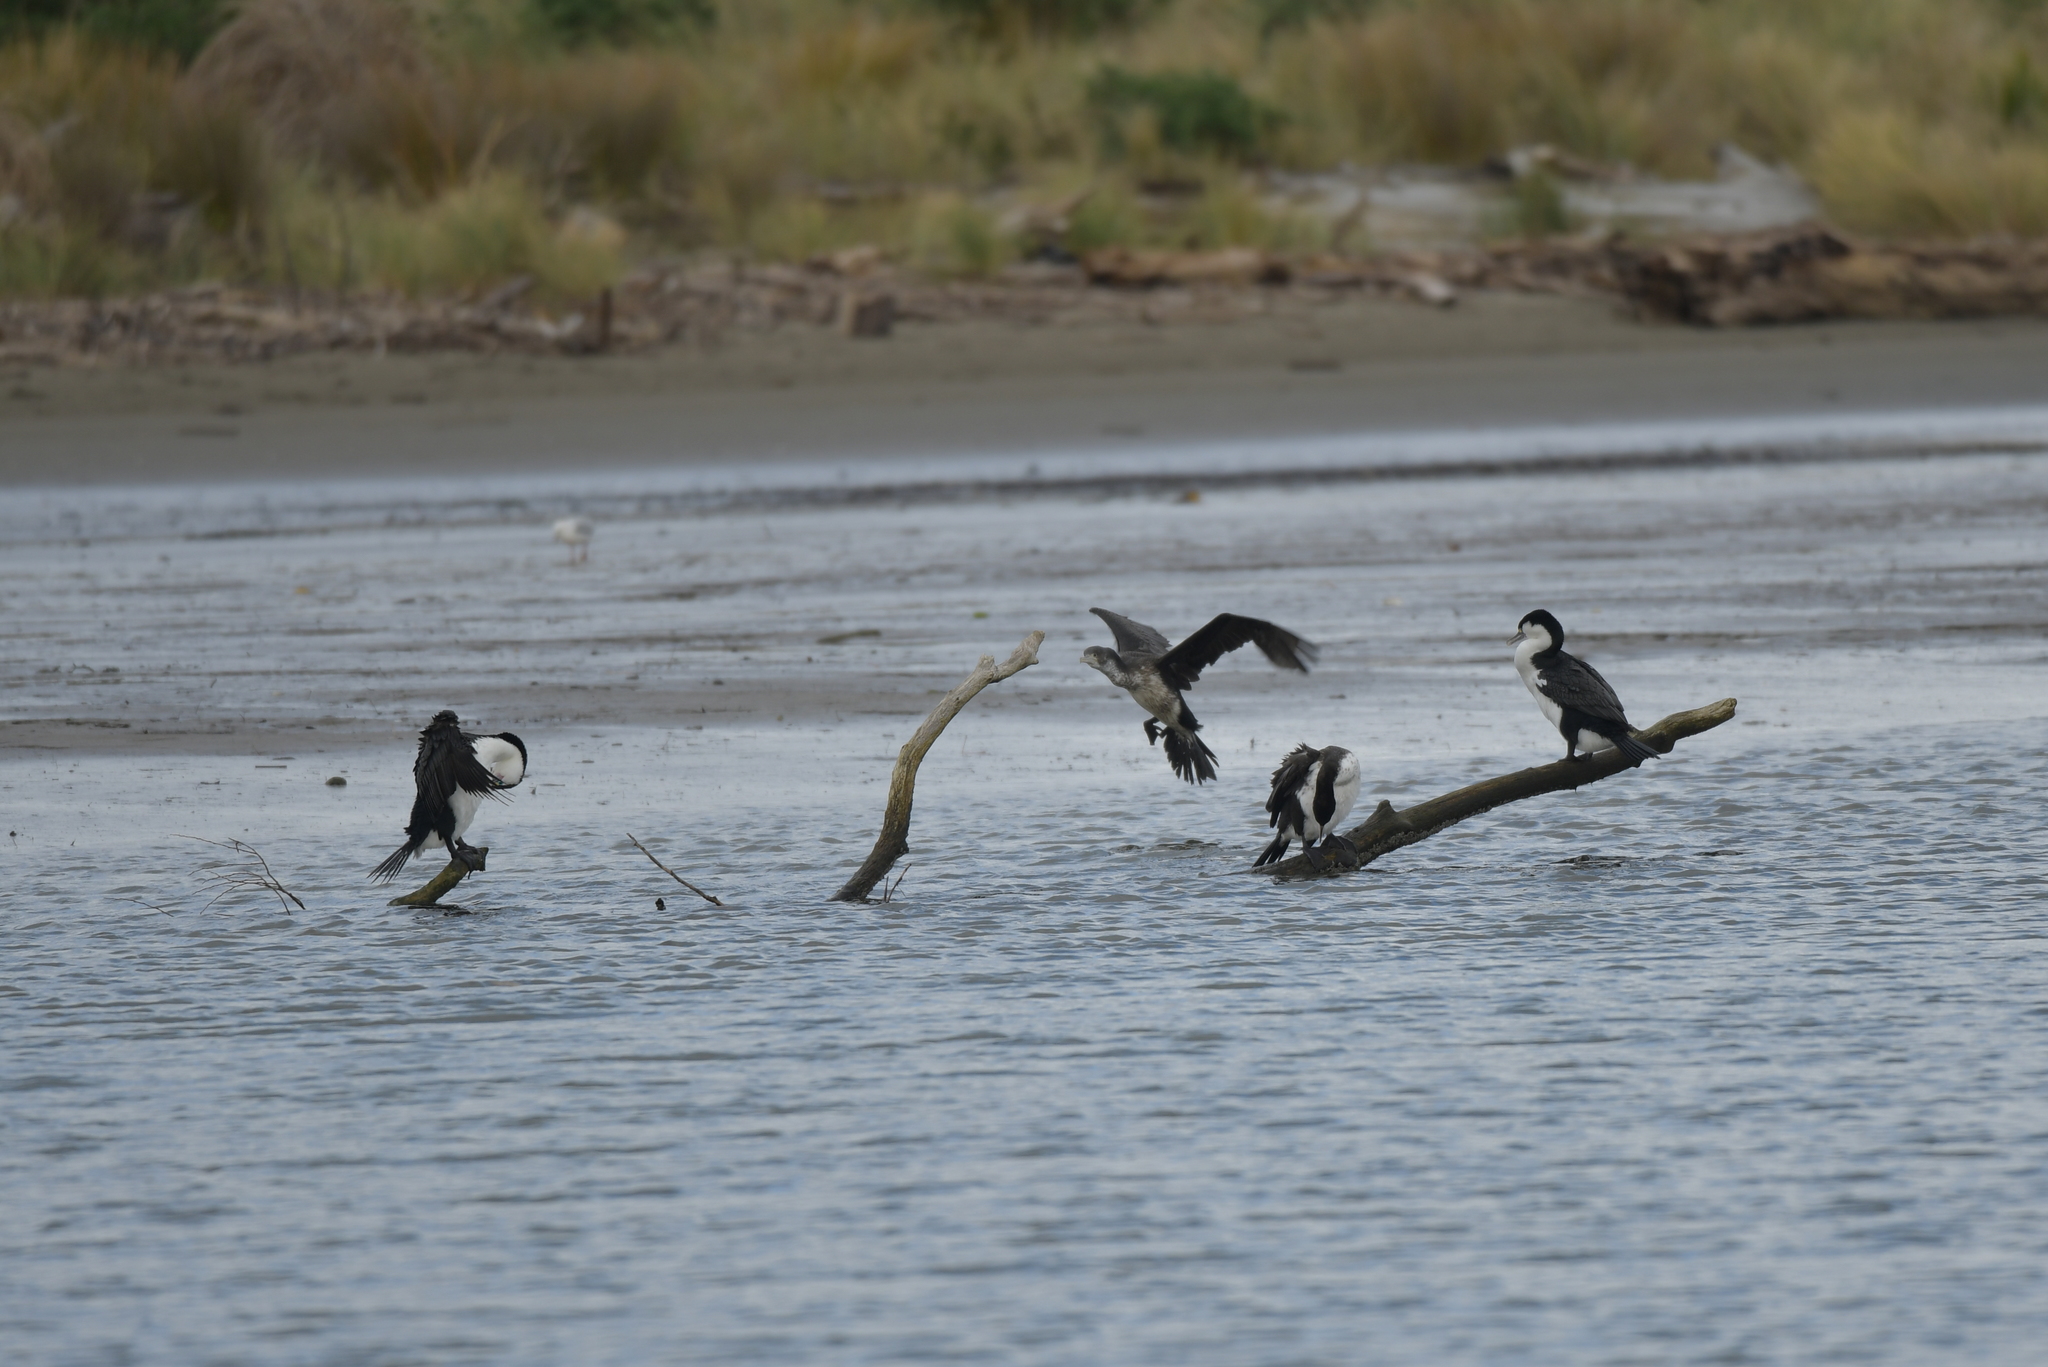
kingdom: Animalia
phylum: Chordata
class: Aves
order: Suliformes
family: Phalacrocoracidae
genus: Phalacrocorax
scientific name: Phalacrocorax varius
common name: Pied cormorant
